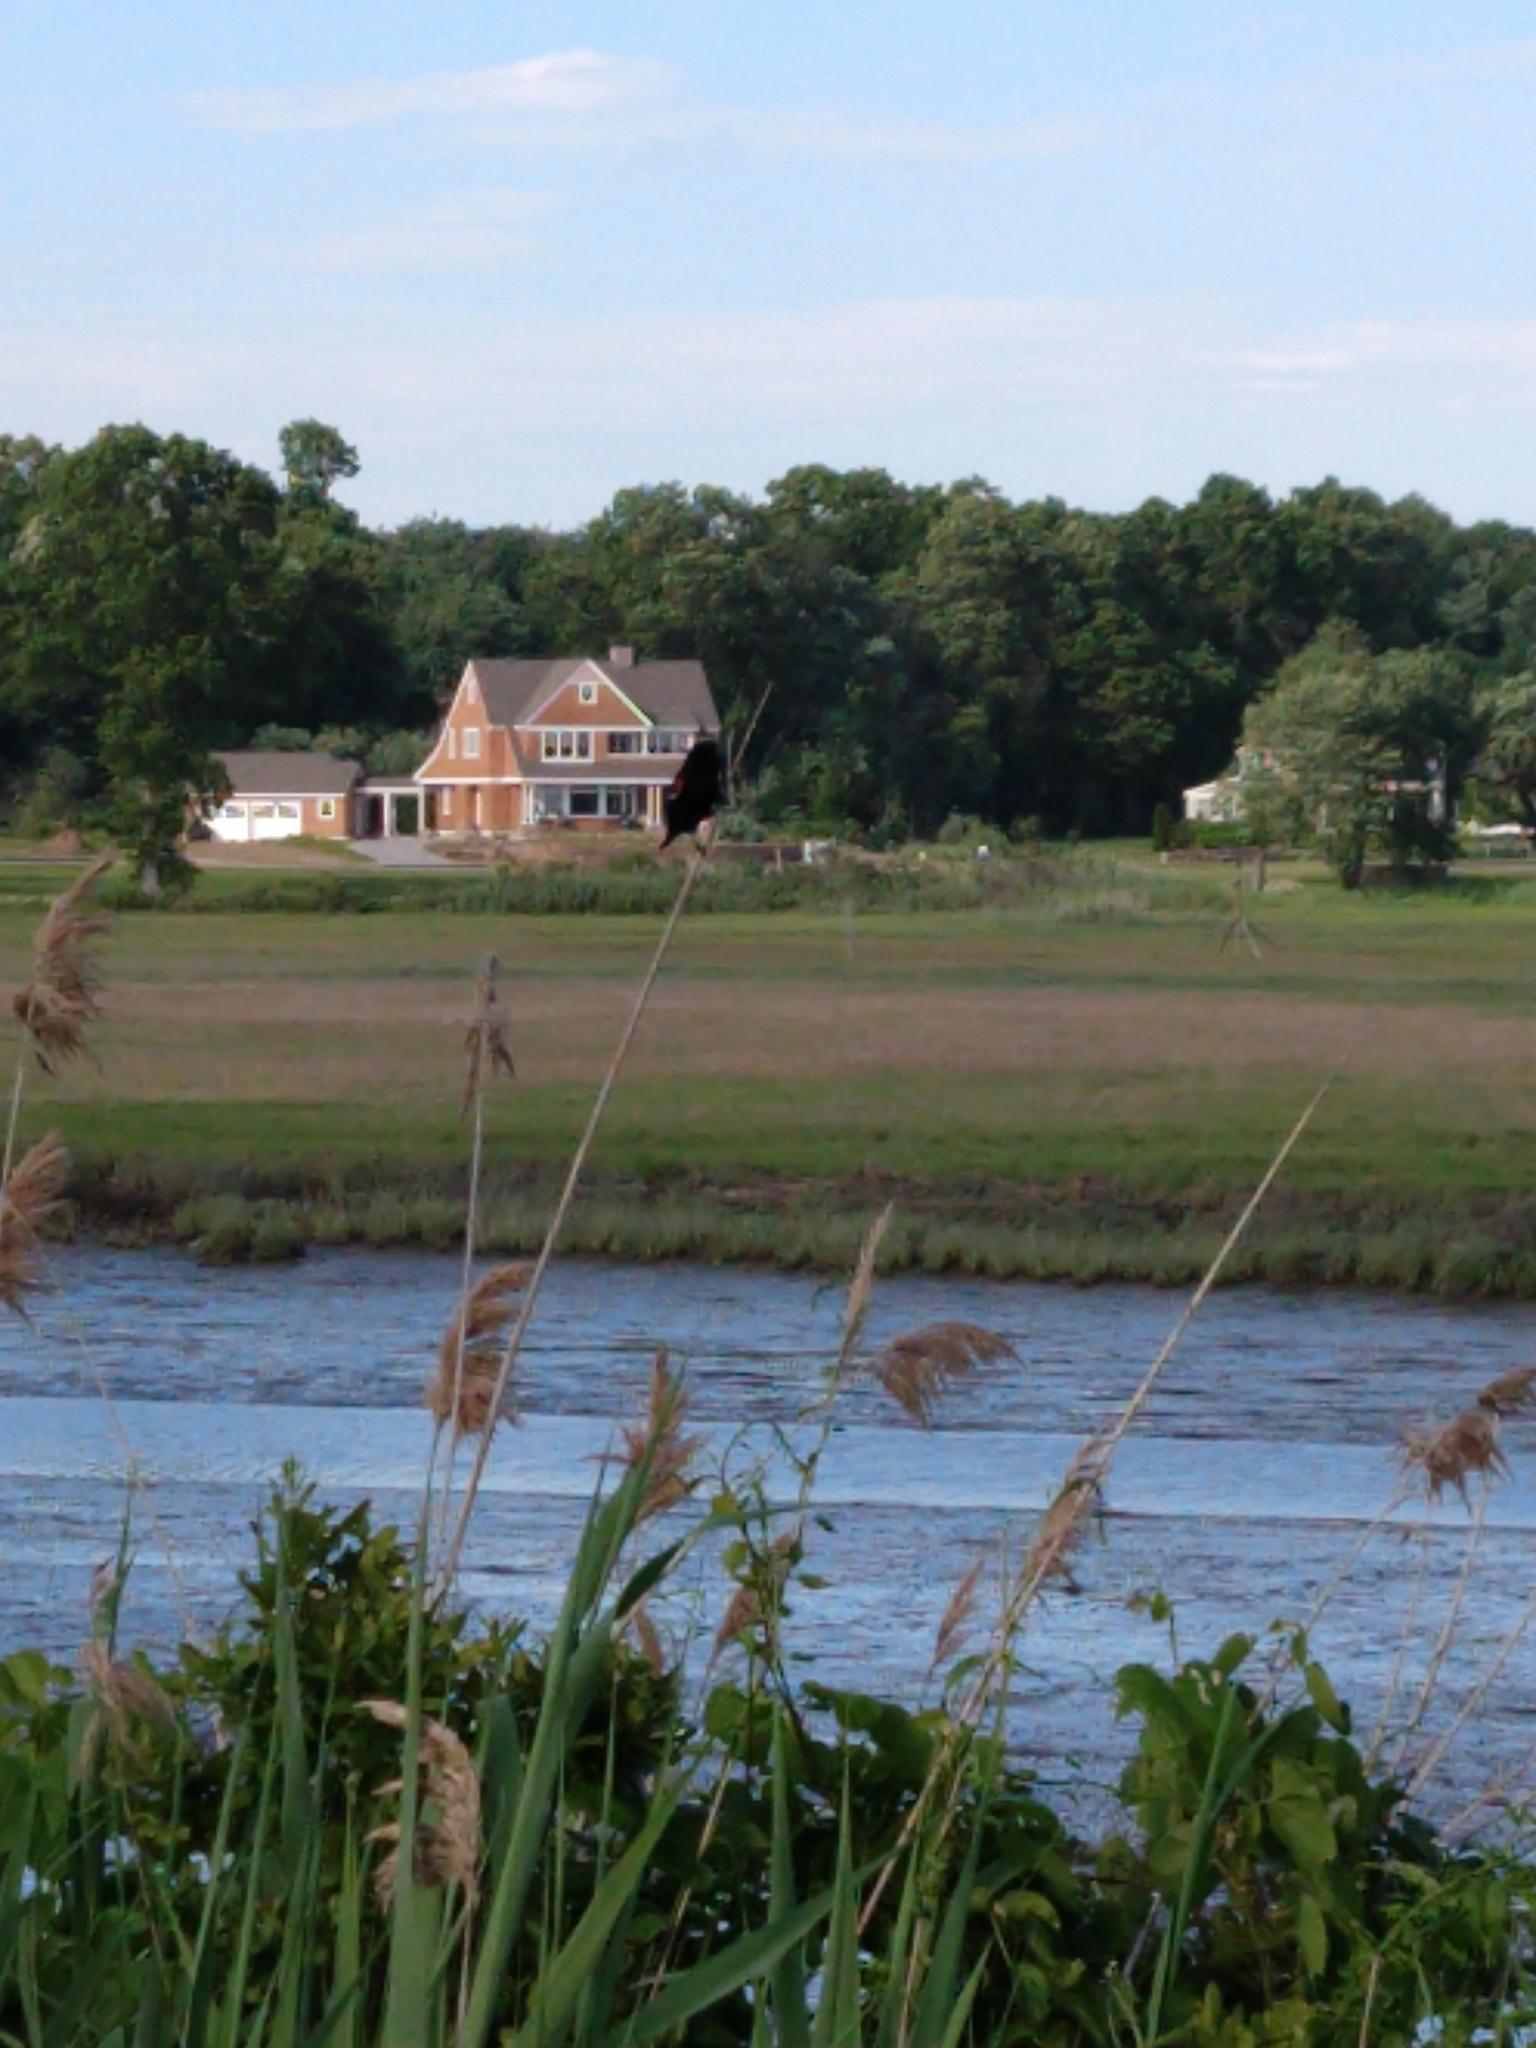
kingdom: Animalia
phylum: Chordata
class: Aves
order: Passeriformes
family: Icteridae
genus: Agelaius
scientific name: Agelaius phoeniceus
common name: Red-winged blackbird
